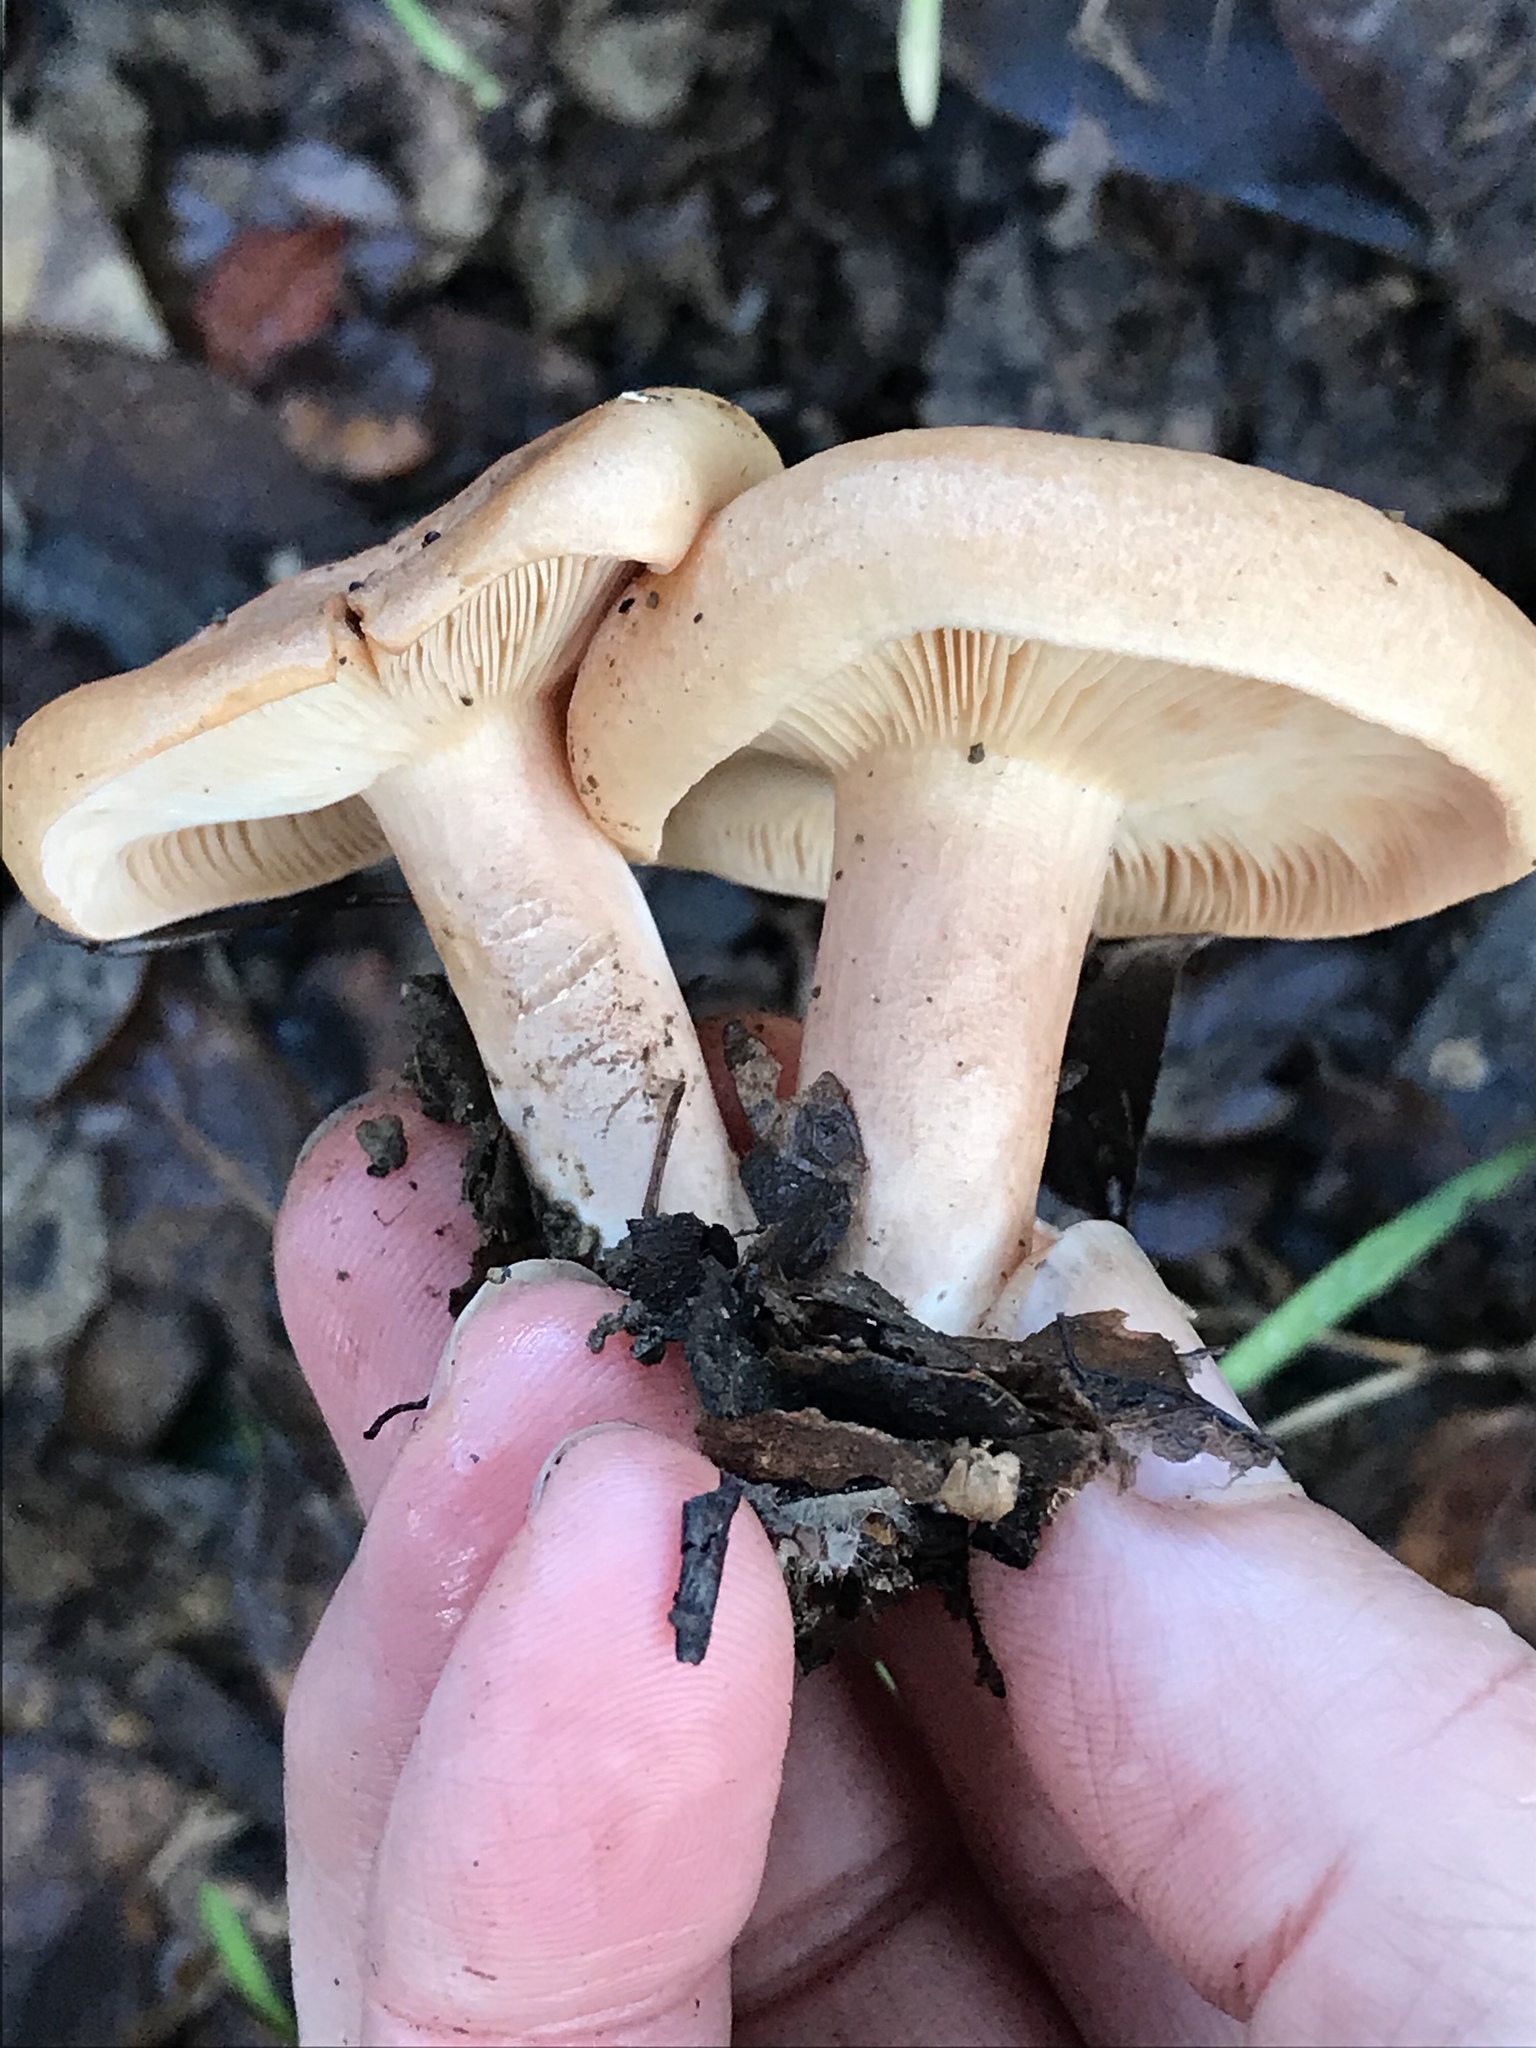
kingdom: Fungi
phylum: Basidiomycota
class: Agaricomycetes
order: Russulales
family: Russulaceae
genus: Lactarius
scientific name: Lactarius xanthogalactus
